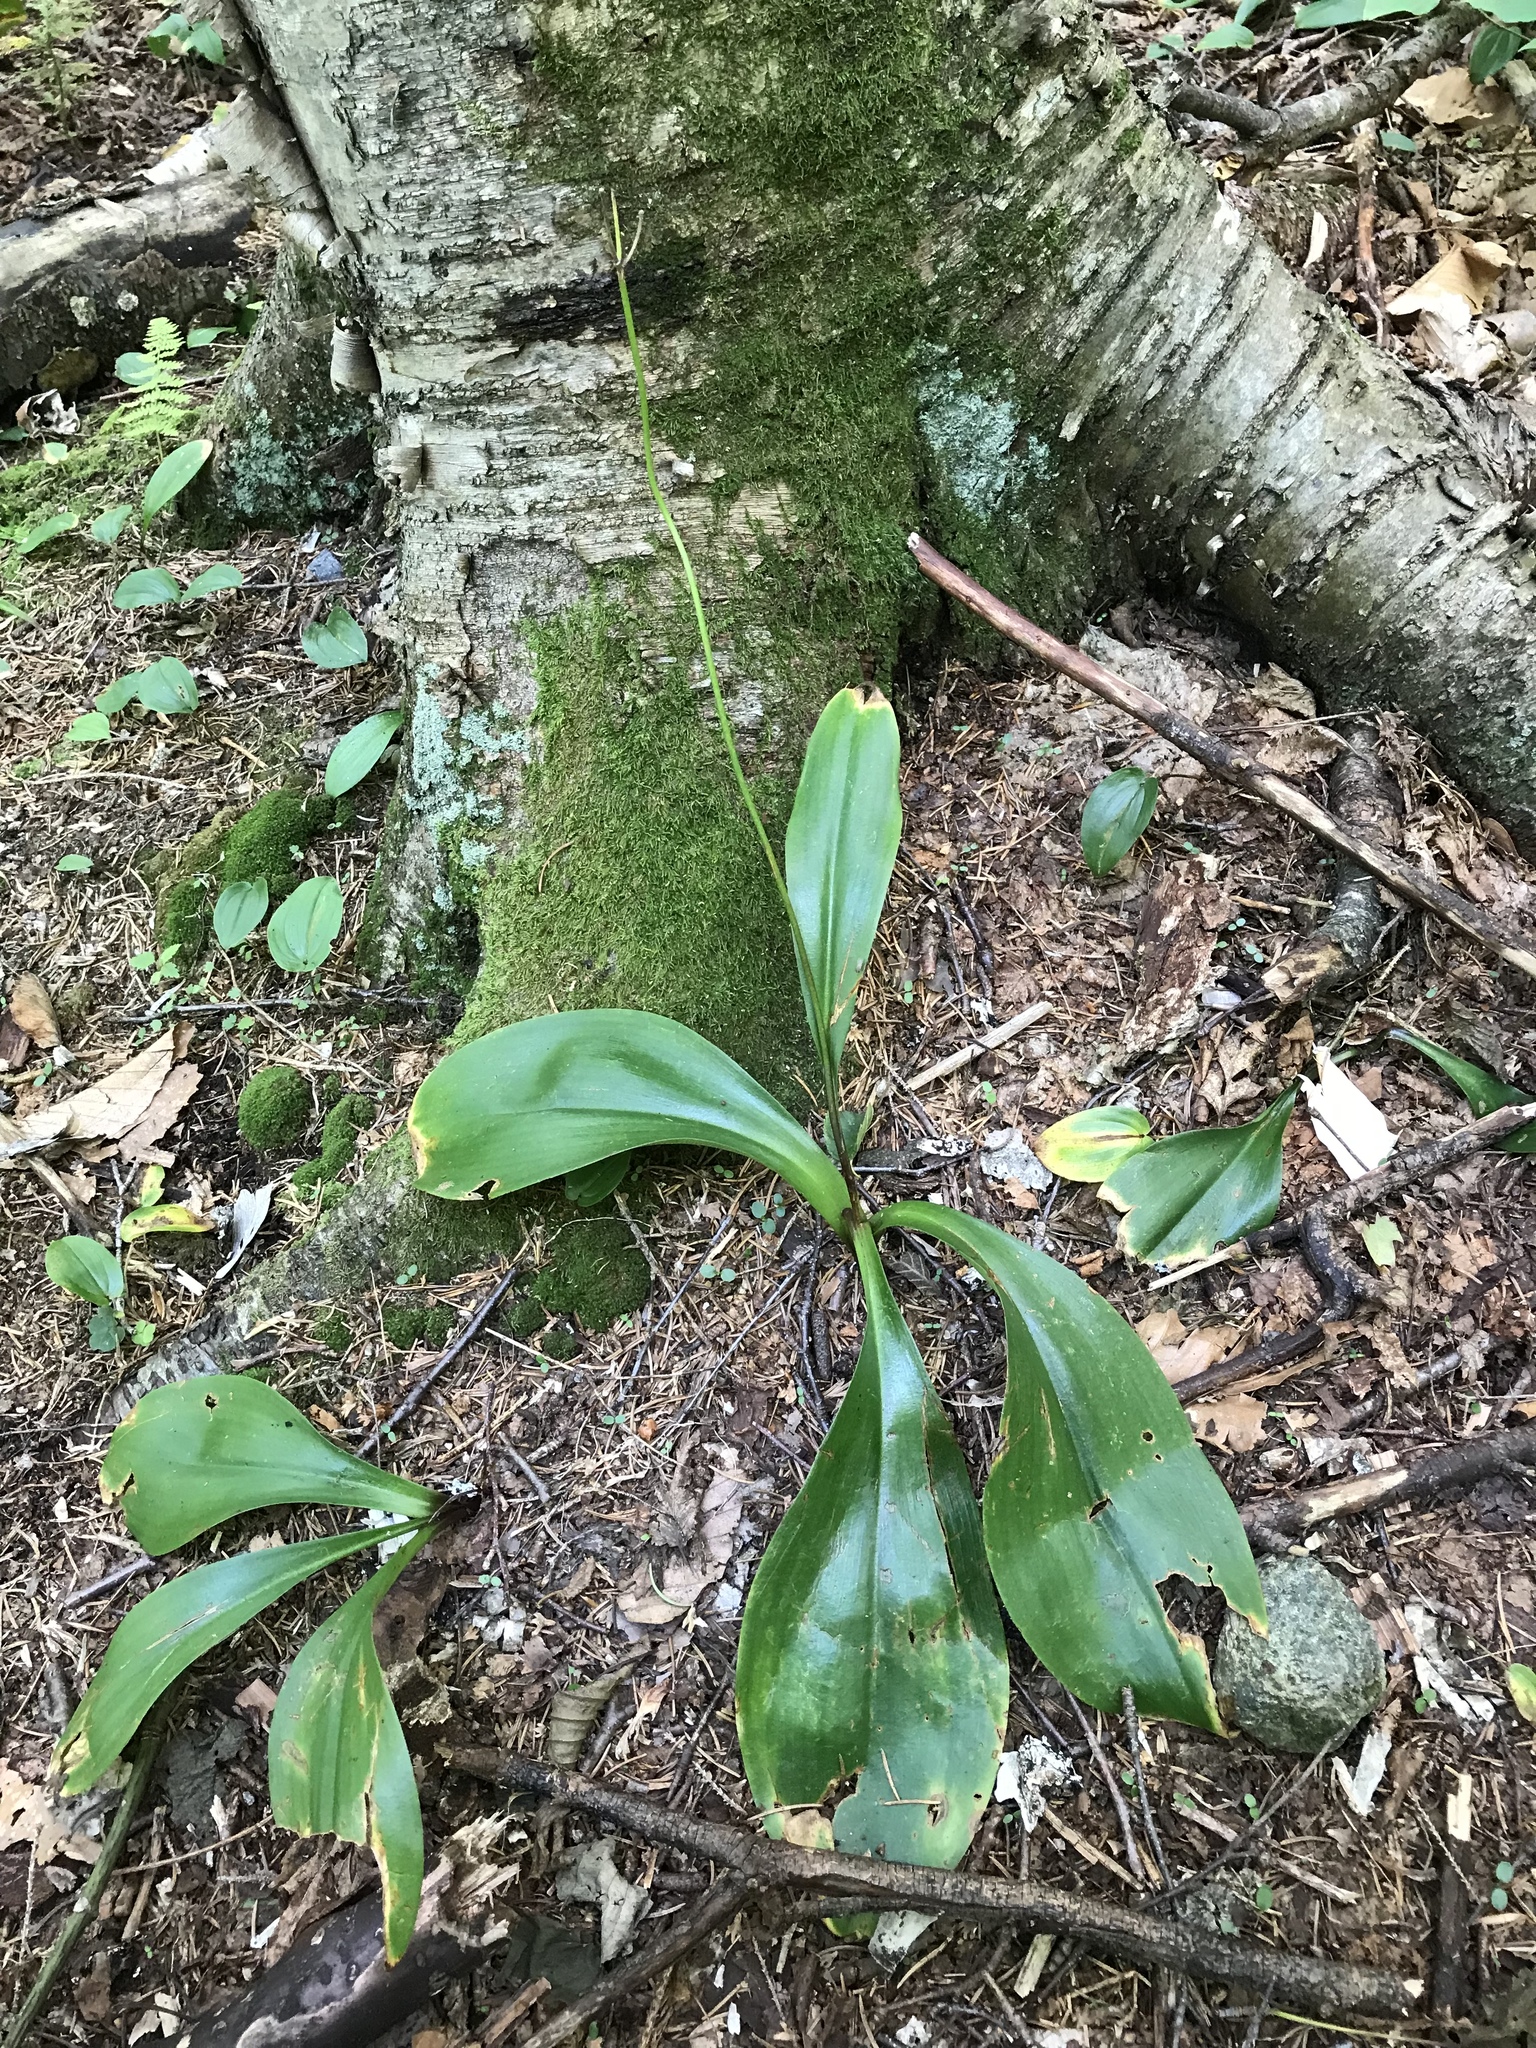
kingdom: Plantae
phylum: Tracheophyta
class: Liliopsida
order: Liliales
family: Liliaceae
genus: Clintonia
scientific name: Clintonia borealis
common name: Yellow clintonia
